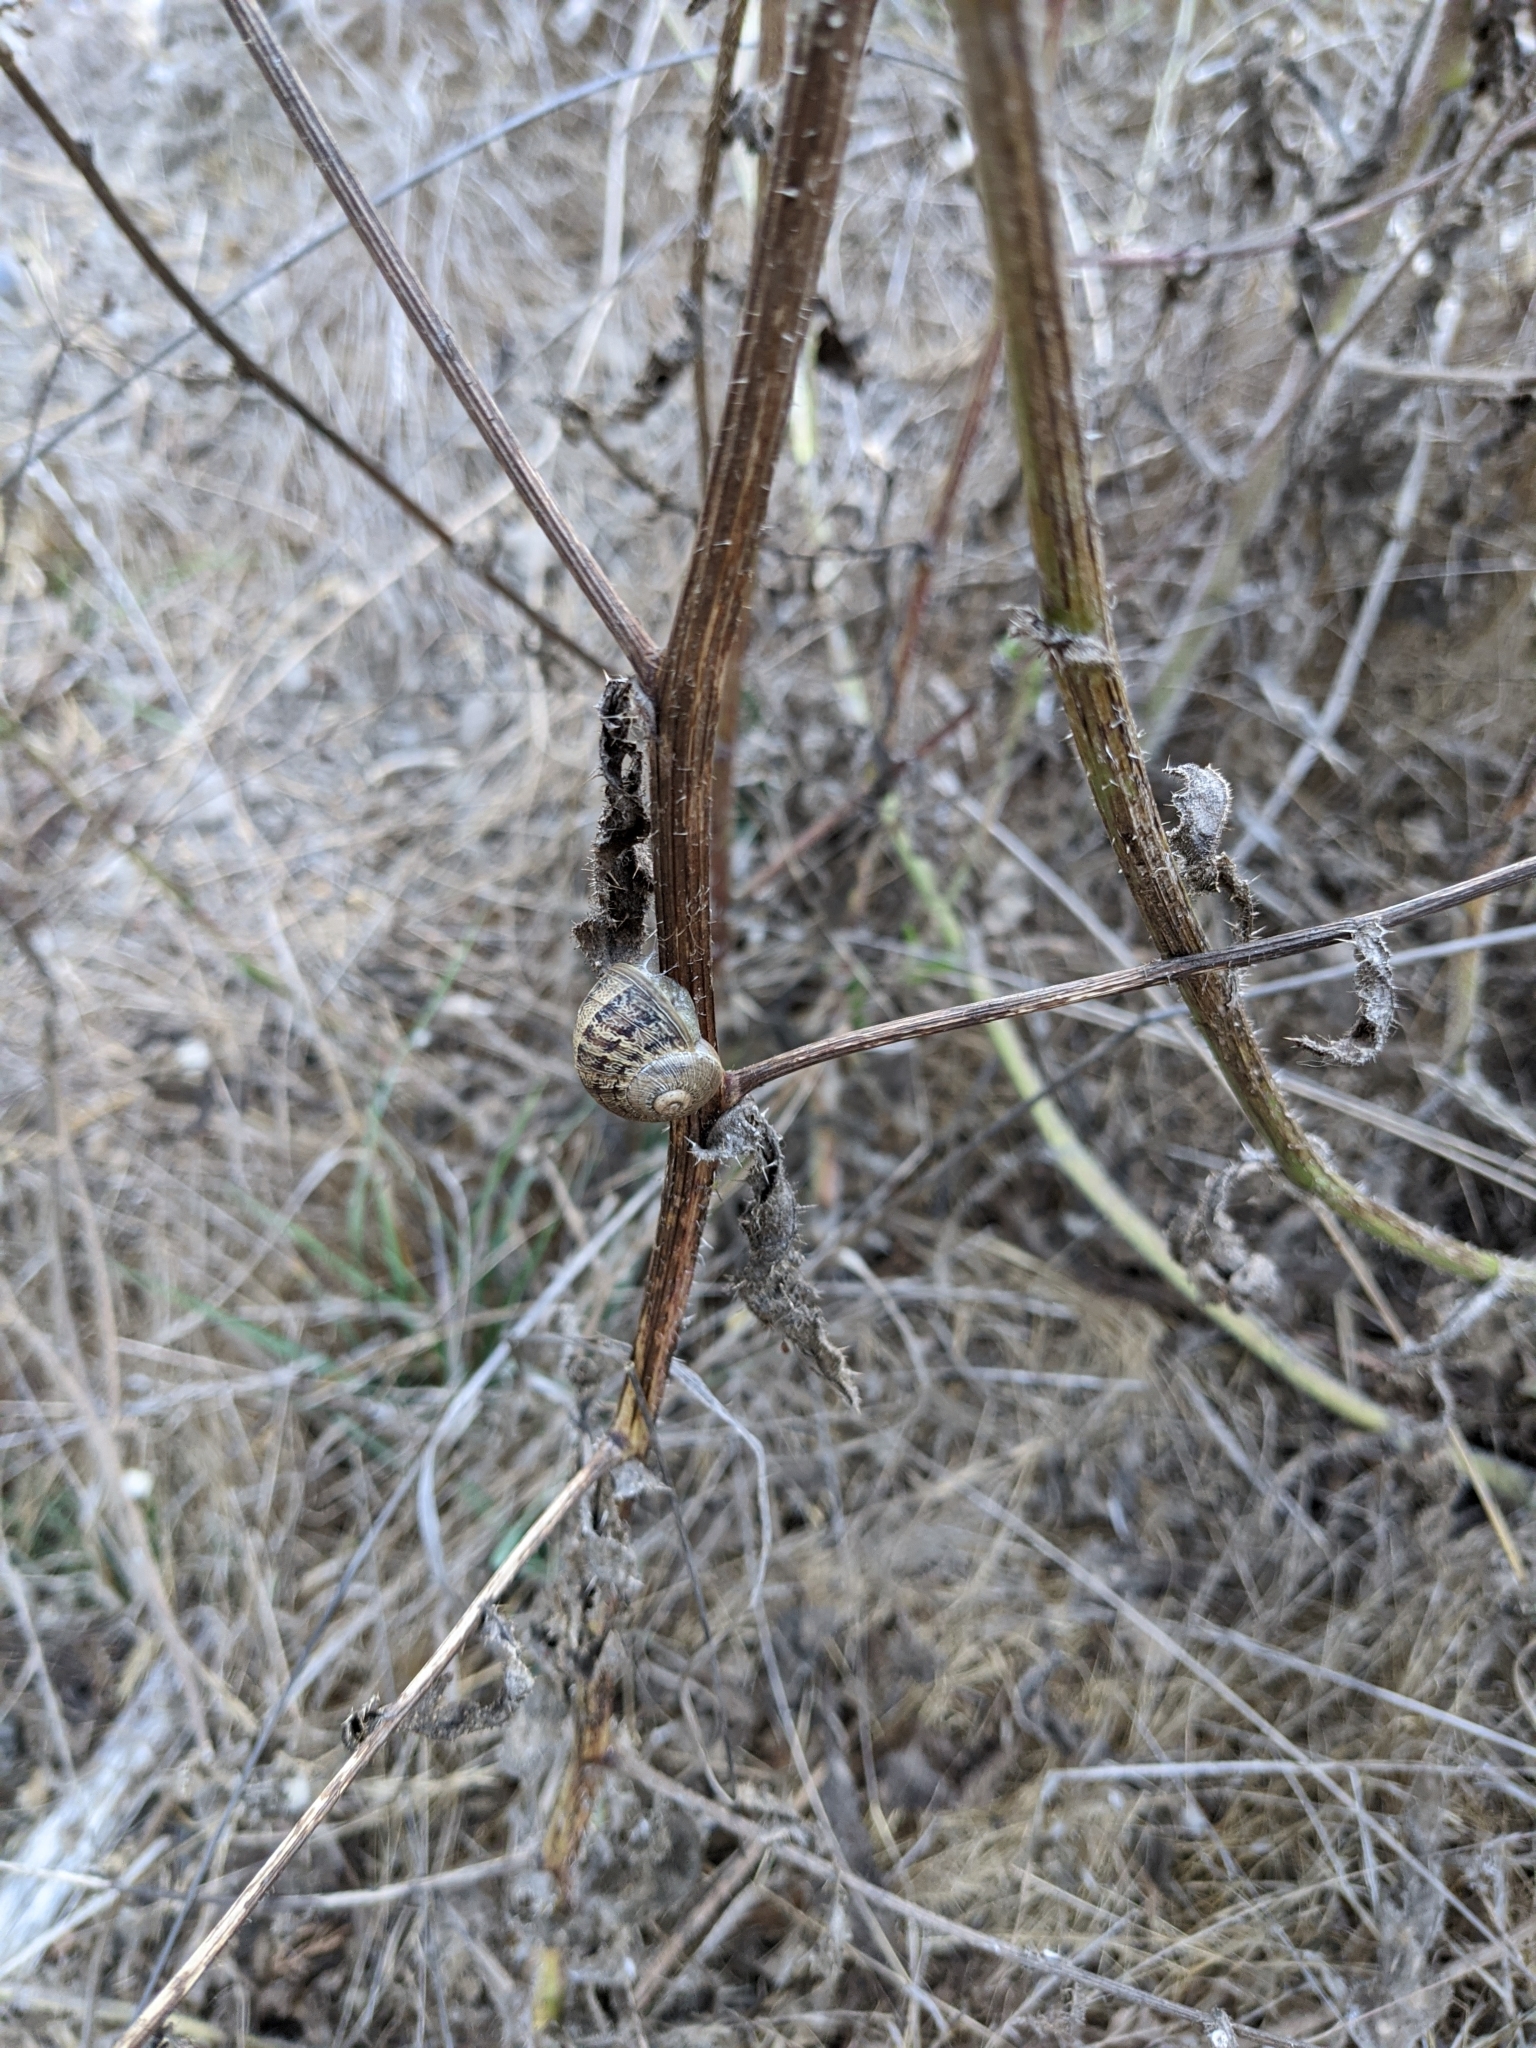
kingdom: Animalia
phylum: Mollusca
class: Gastropoda
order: Stylommatophora
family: Helicidae
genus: Cornu
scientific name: Cornu aspersum
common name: Brown garden snail
